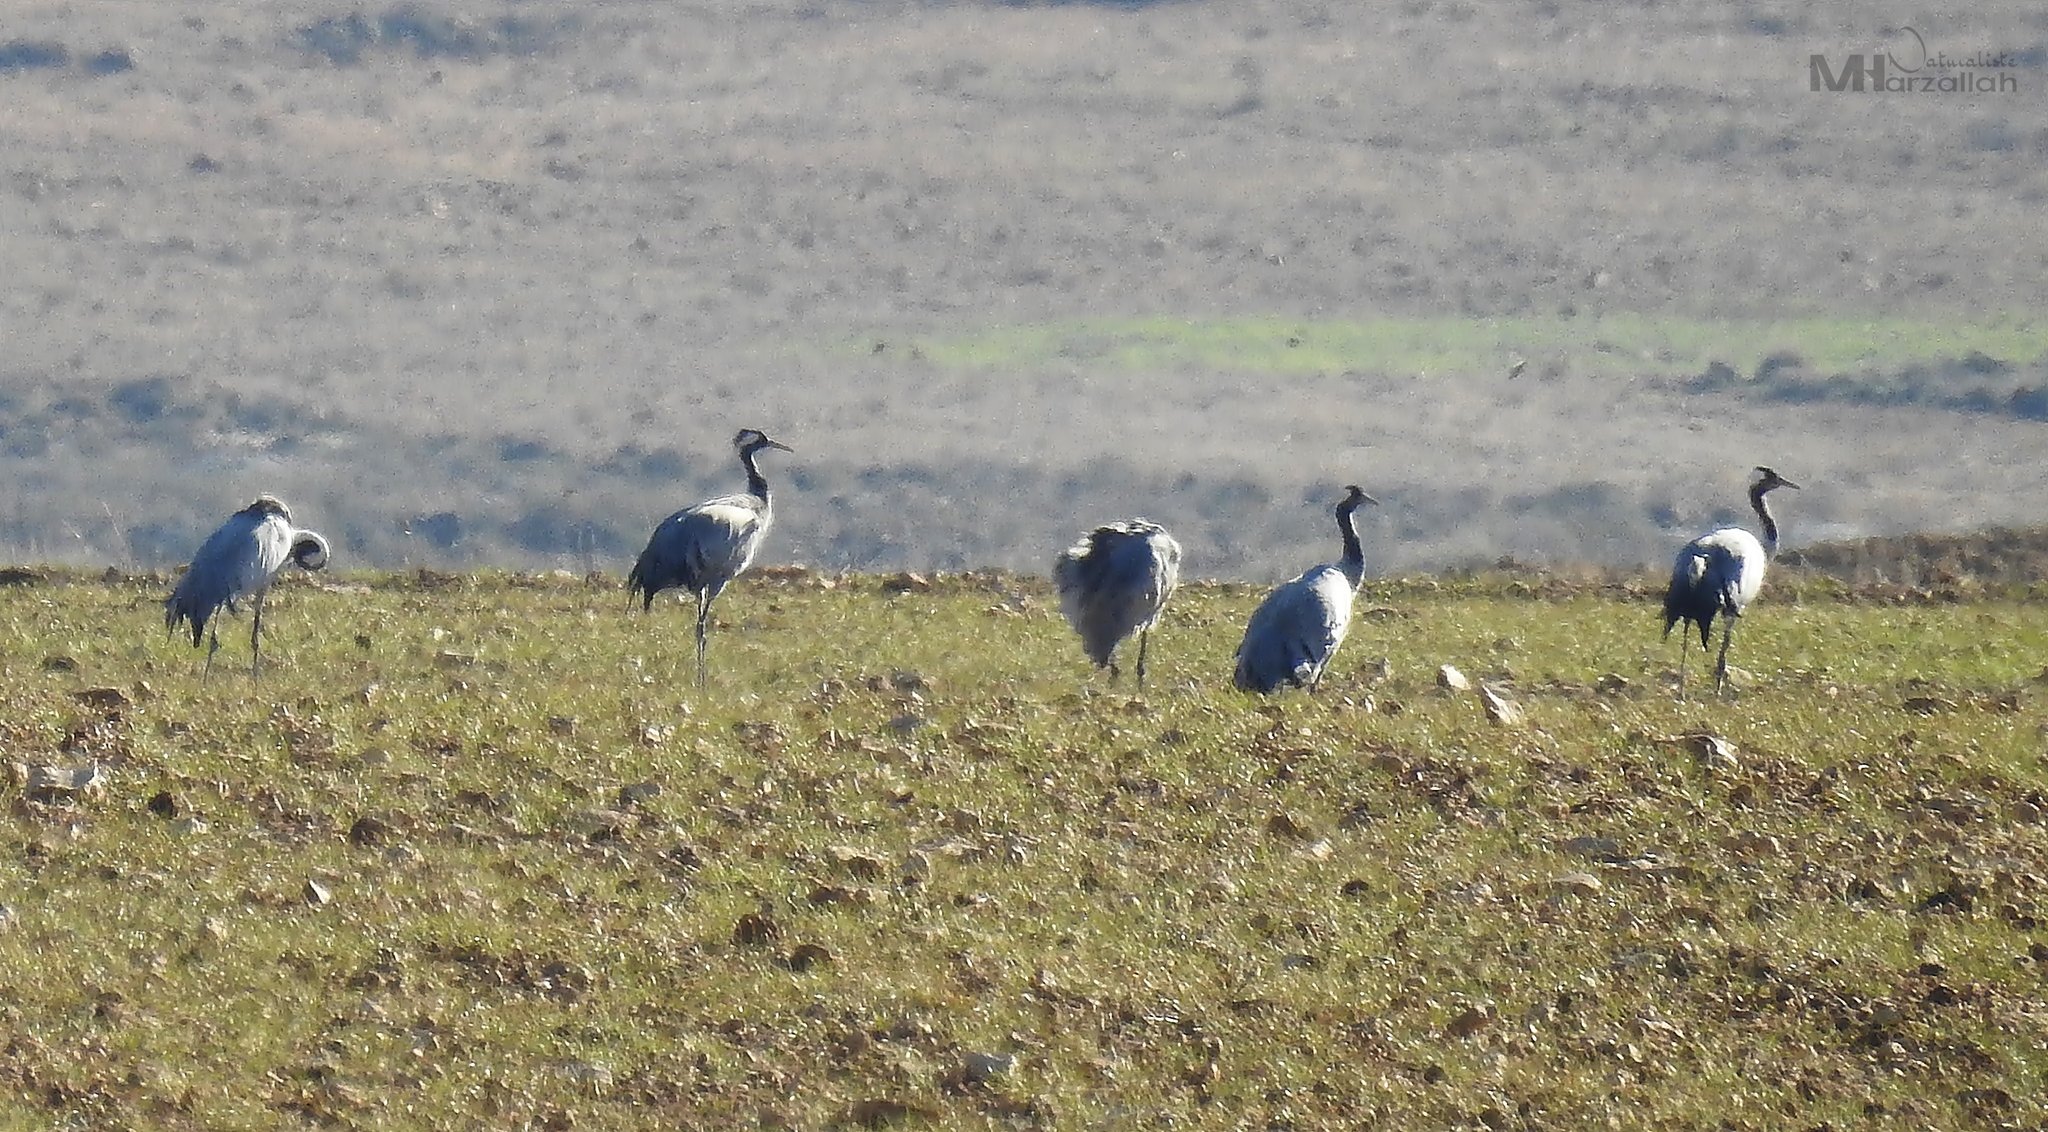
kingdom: Animalia
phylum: Chordata
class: Aves
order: Gruiformes
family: Gruidae
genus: Grus
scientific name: Grus grus
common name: Common crane
